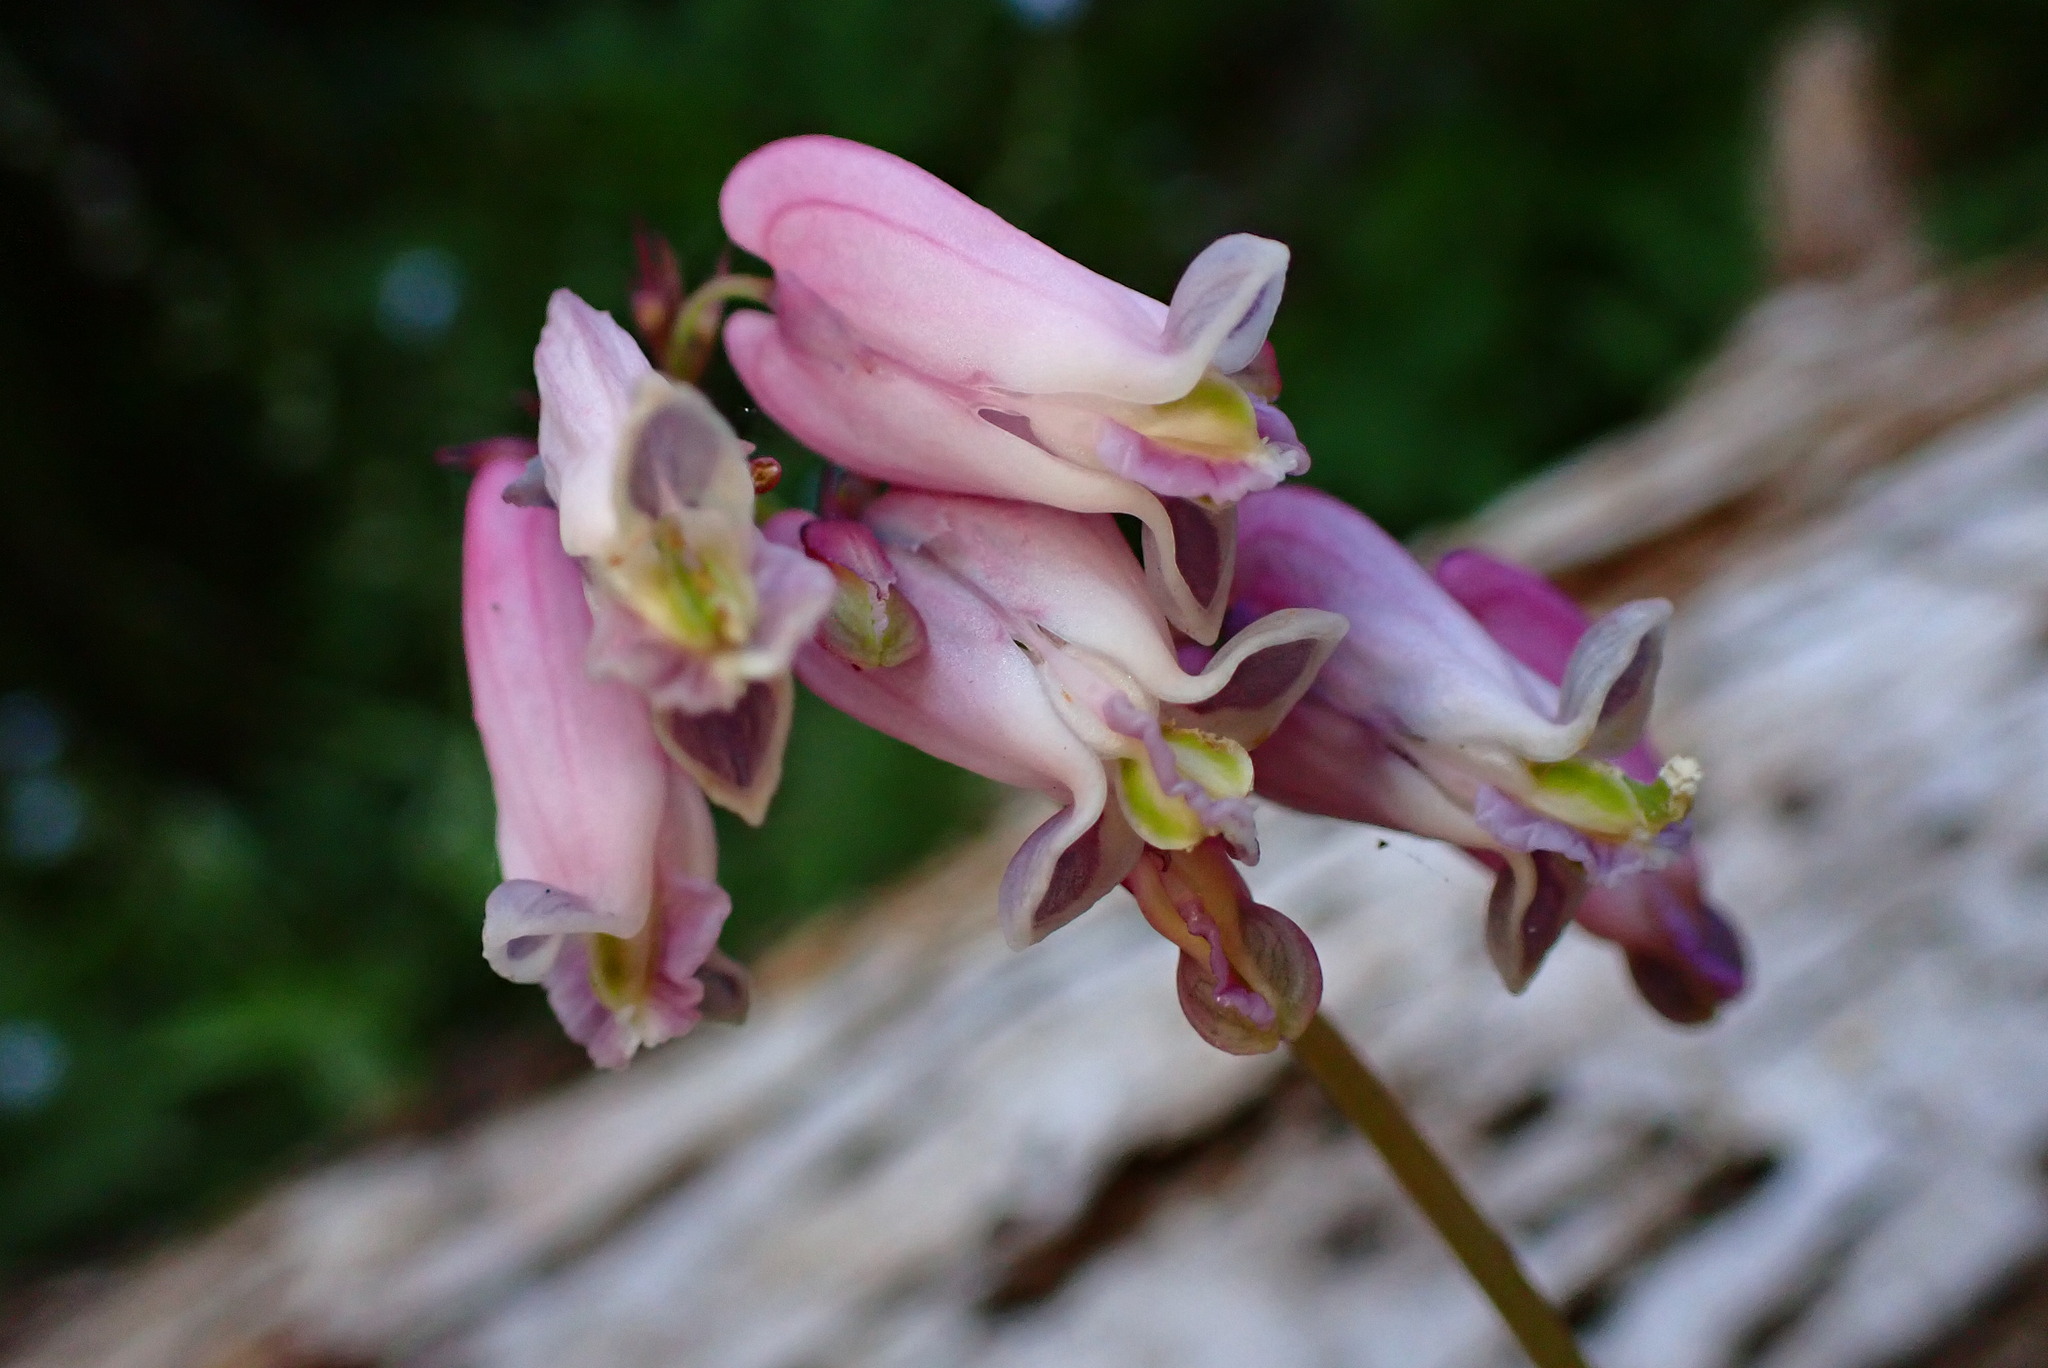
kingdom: Plantae
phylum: Tracheophyta
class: Magnoliopsida
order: Ranunculales
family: Papaveraceae
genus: Dicentra
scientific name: Dicentra formosa
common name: Bleeding-heart
